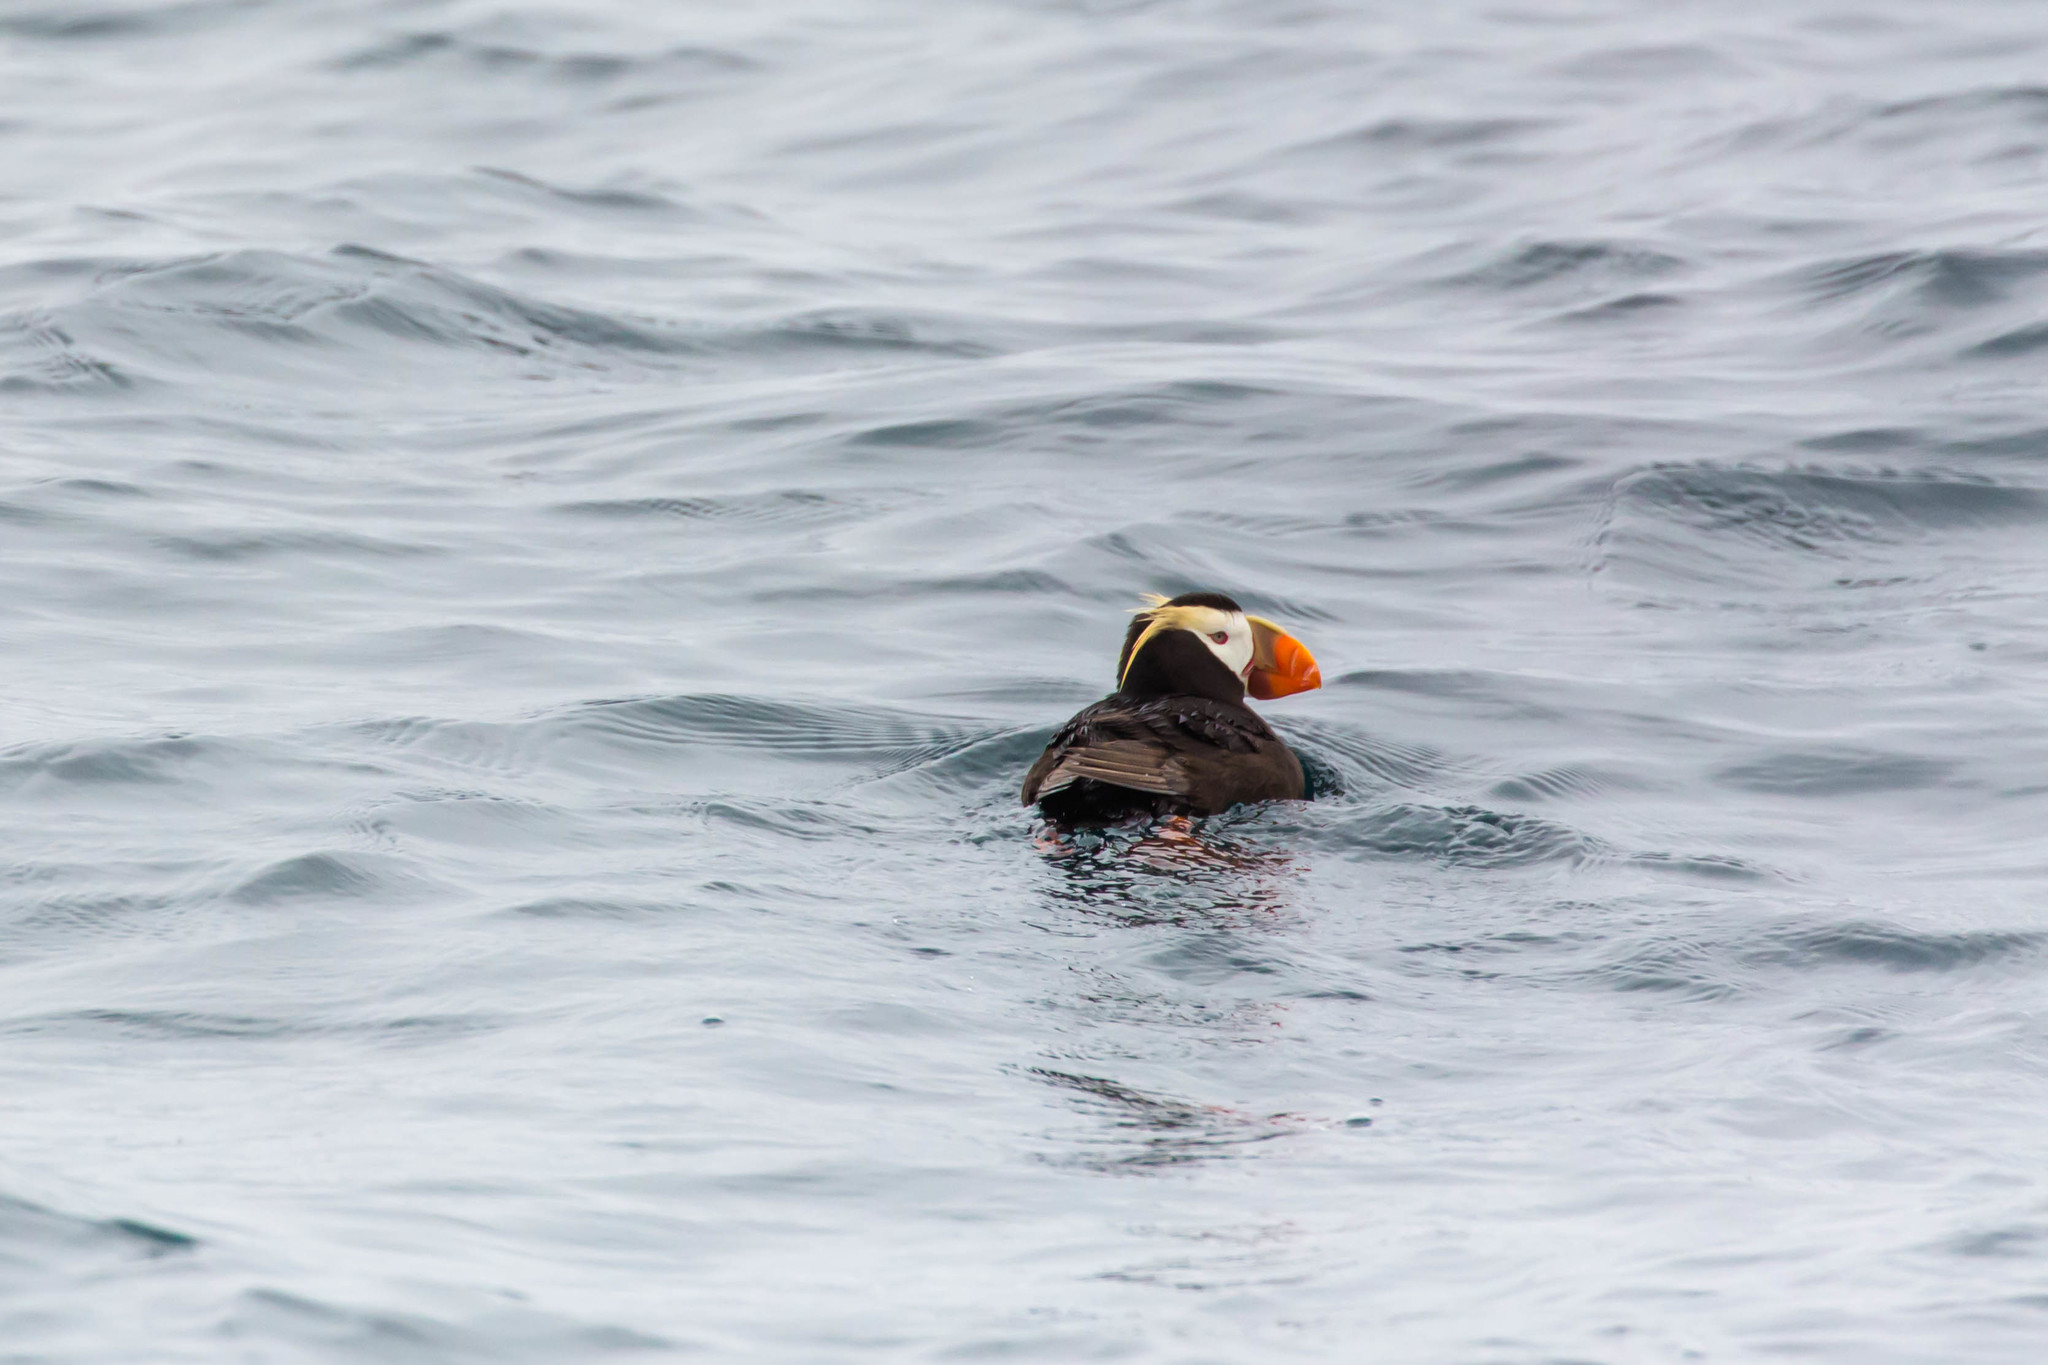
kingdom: Animalia
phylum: Chordata
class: Aves
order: Charadriiformes
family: Alcidae
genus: Fratercula
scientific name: Fratercula cirrhata
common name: Tufted puffin
